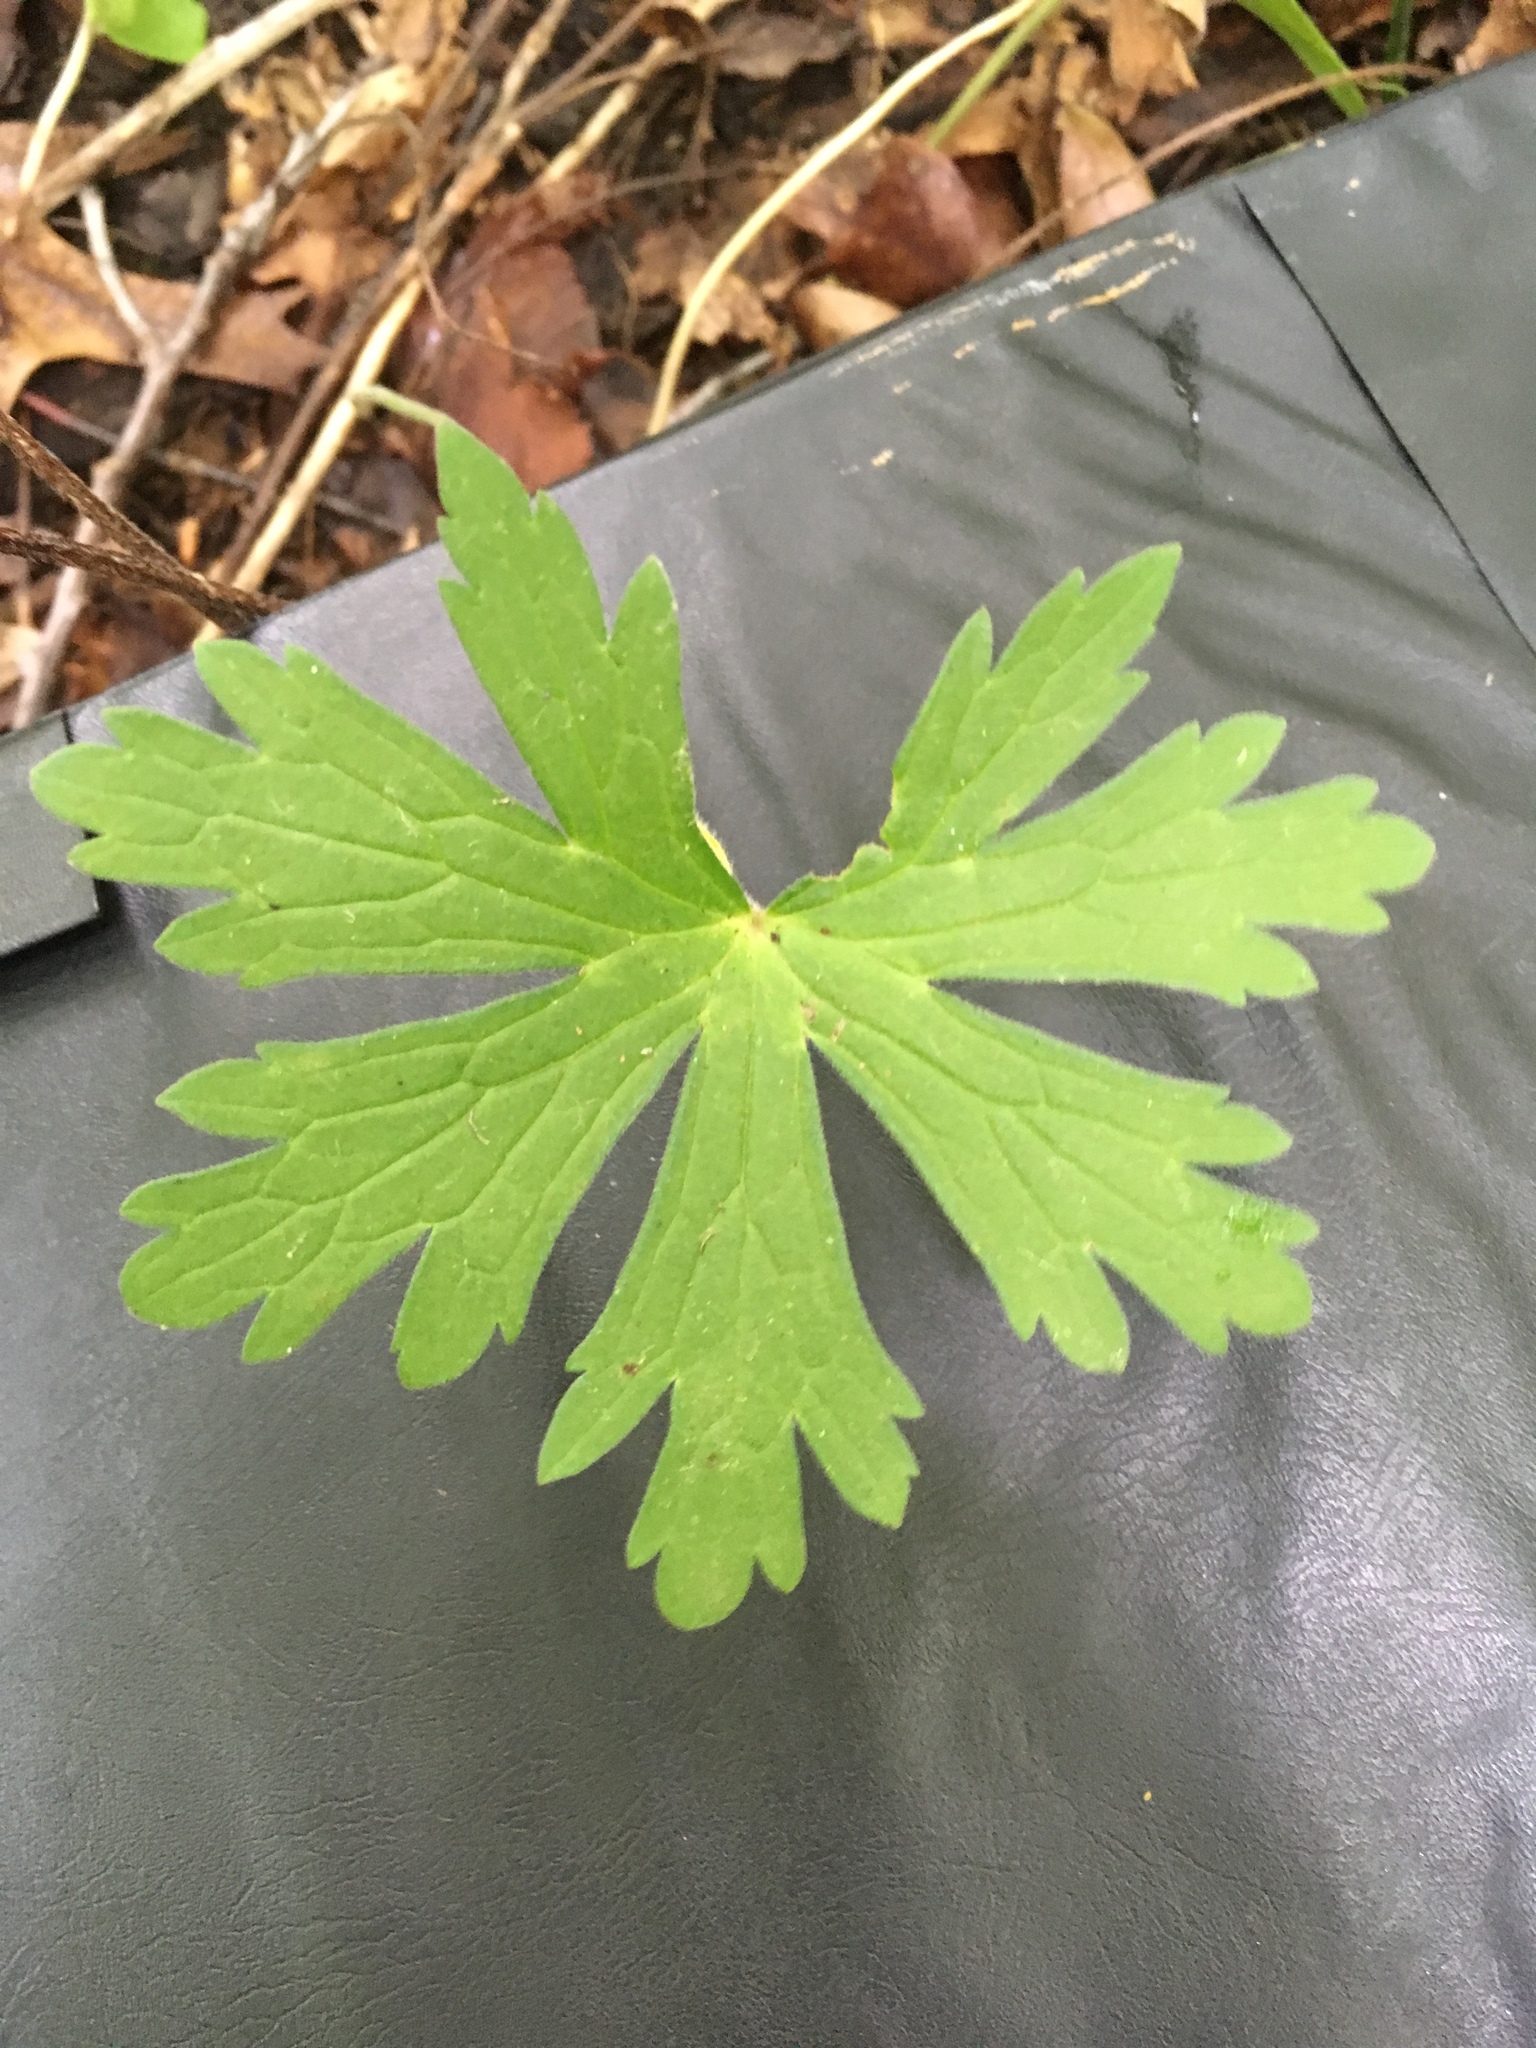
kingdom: Plantae
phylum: Tracheophyta
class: Magnoliopsida
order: Geraniales
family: Geraniaceae
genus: Geranium
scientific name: Geranium maculatum
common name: Spotted geranium
